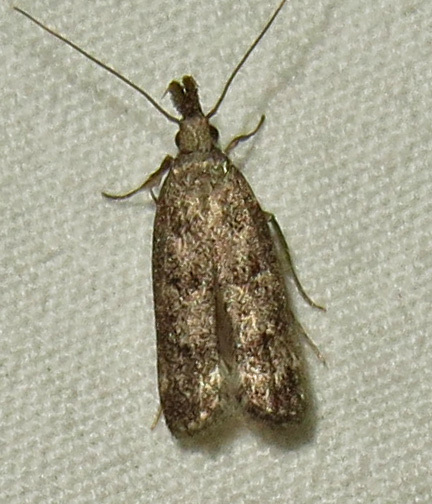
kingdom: Animalia
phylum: Arthropoda
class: Insecta
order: Lepidoptera
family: Gelechiidae
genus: Dichomeris
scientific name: Dichomeris inversella
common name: Inverse dichomeris moth
